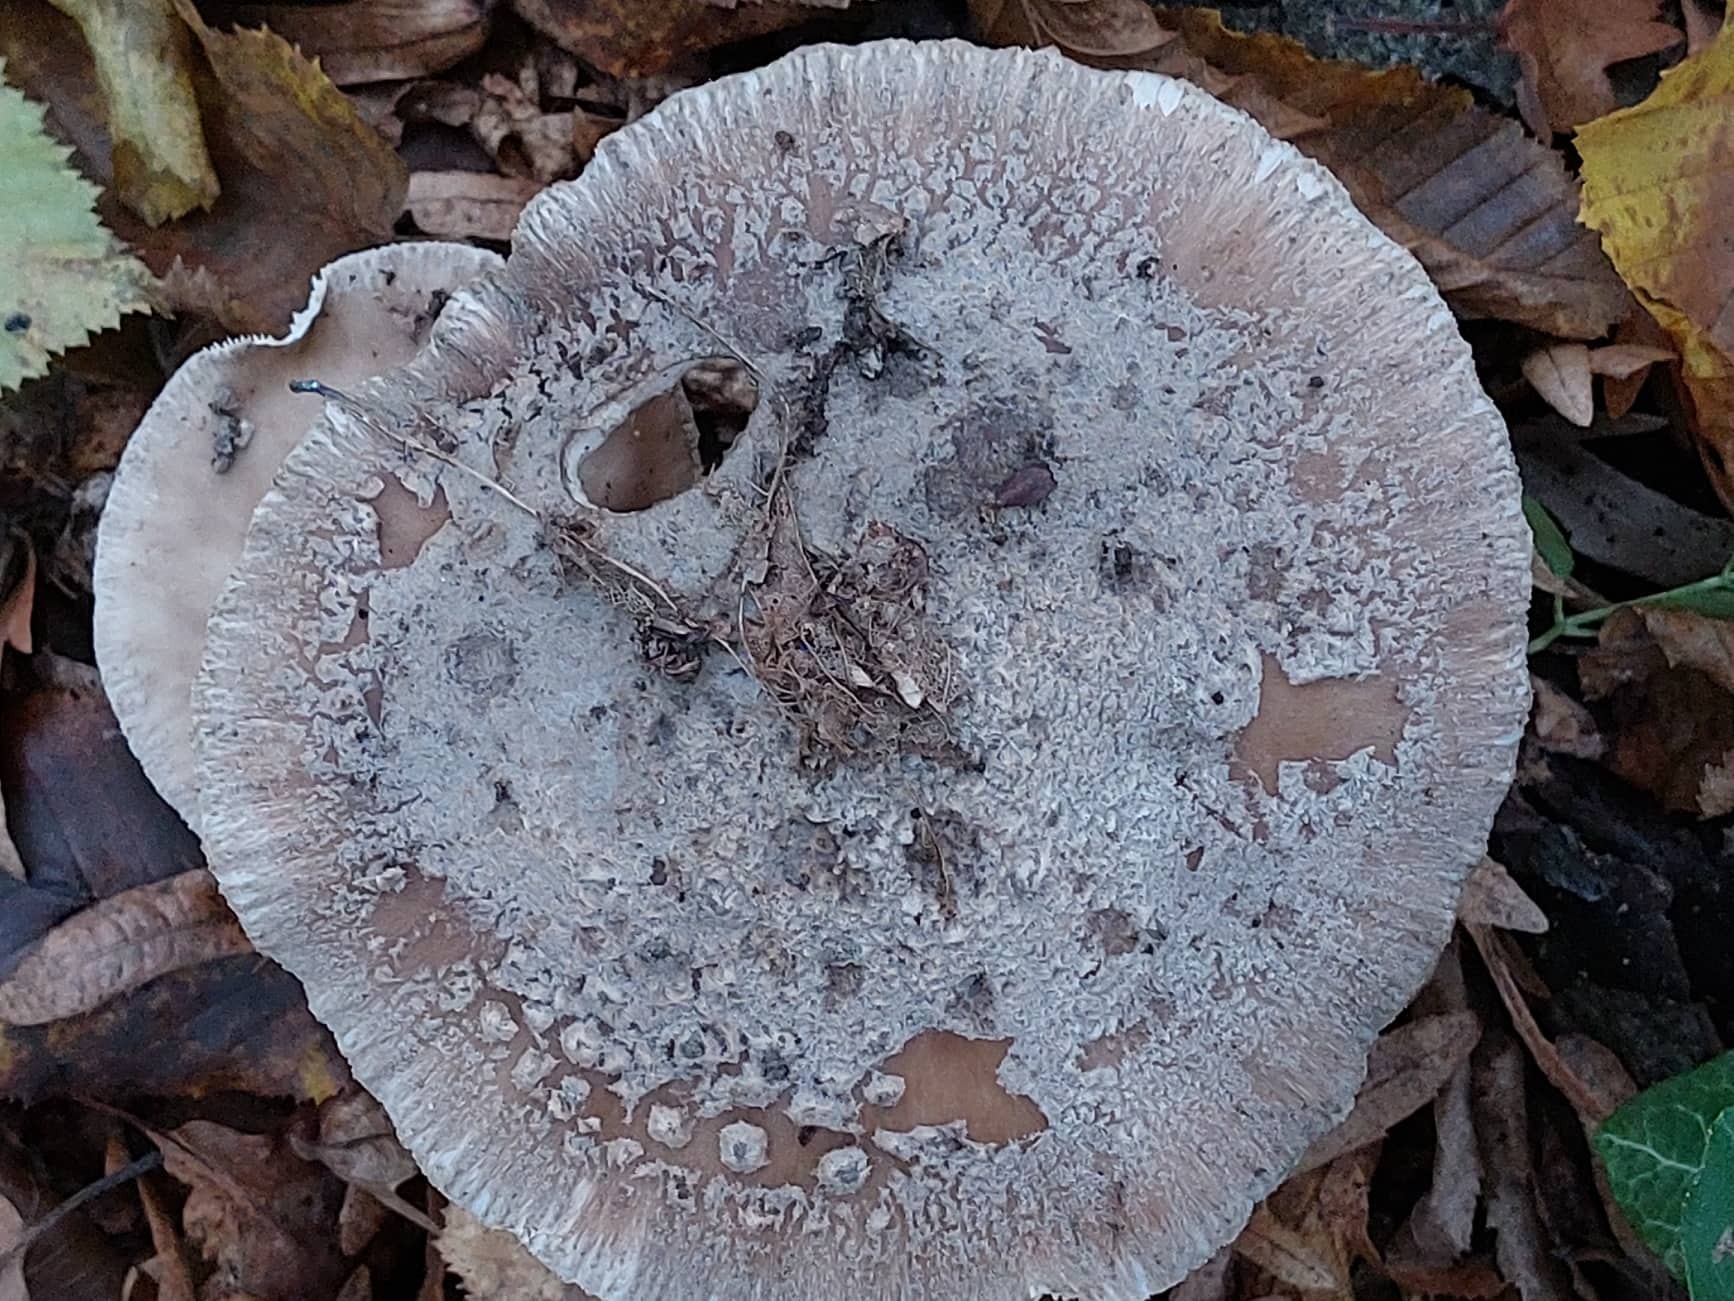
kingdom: Fungi
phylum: Basidiomycota
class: Agaricomycetes
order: Agaricales
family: Amanitaceae
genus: Amanita
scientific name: Amanita excelsa
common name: European false blusher
